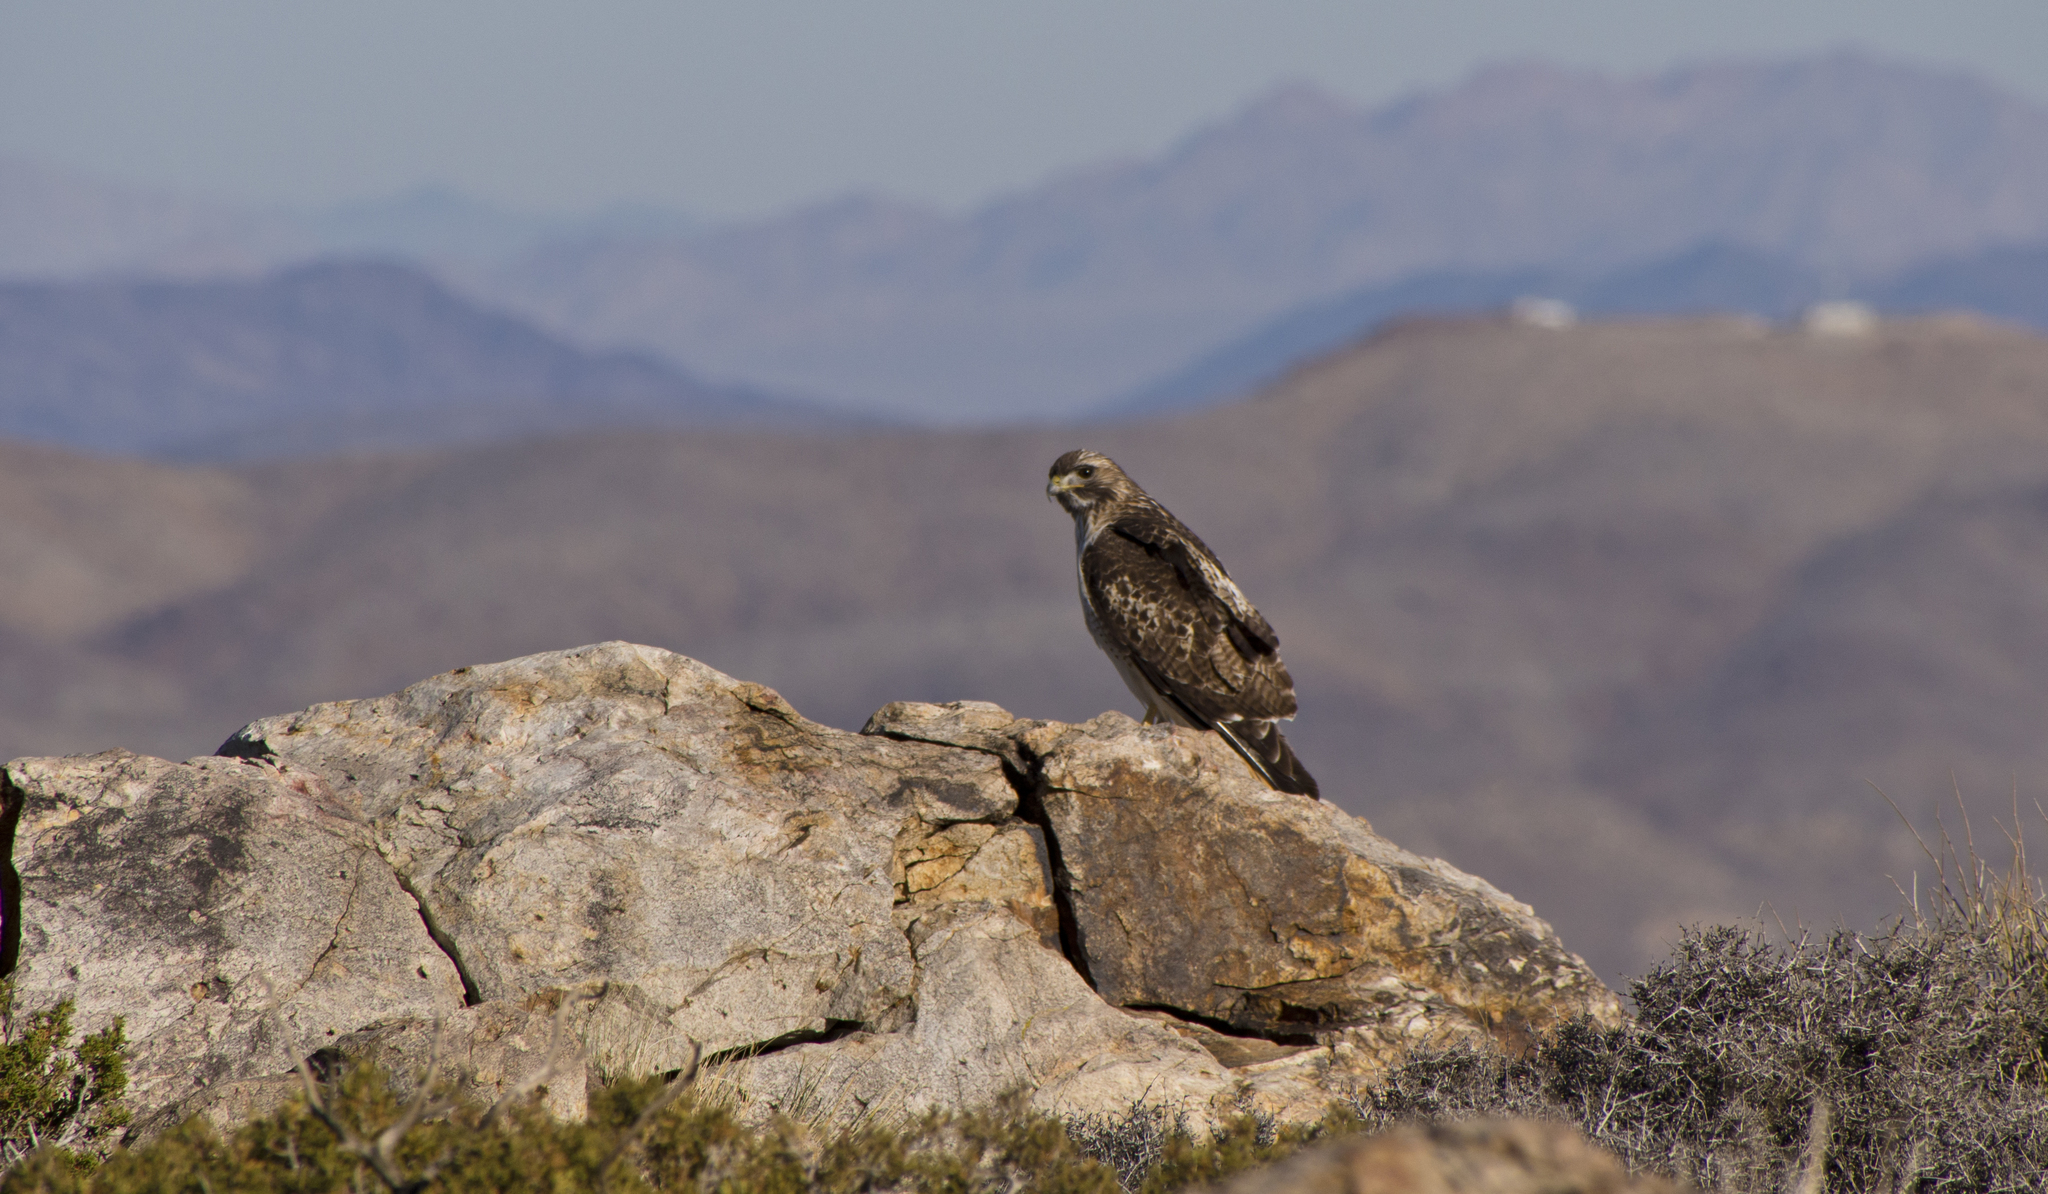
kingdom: Animalia
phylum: Chordata
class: Aves
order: Accipitriformes
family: Accipitridae
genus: Buteo
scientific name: Buteo jamaicensis
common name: Red-tailed hawk
